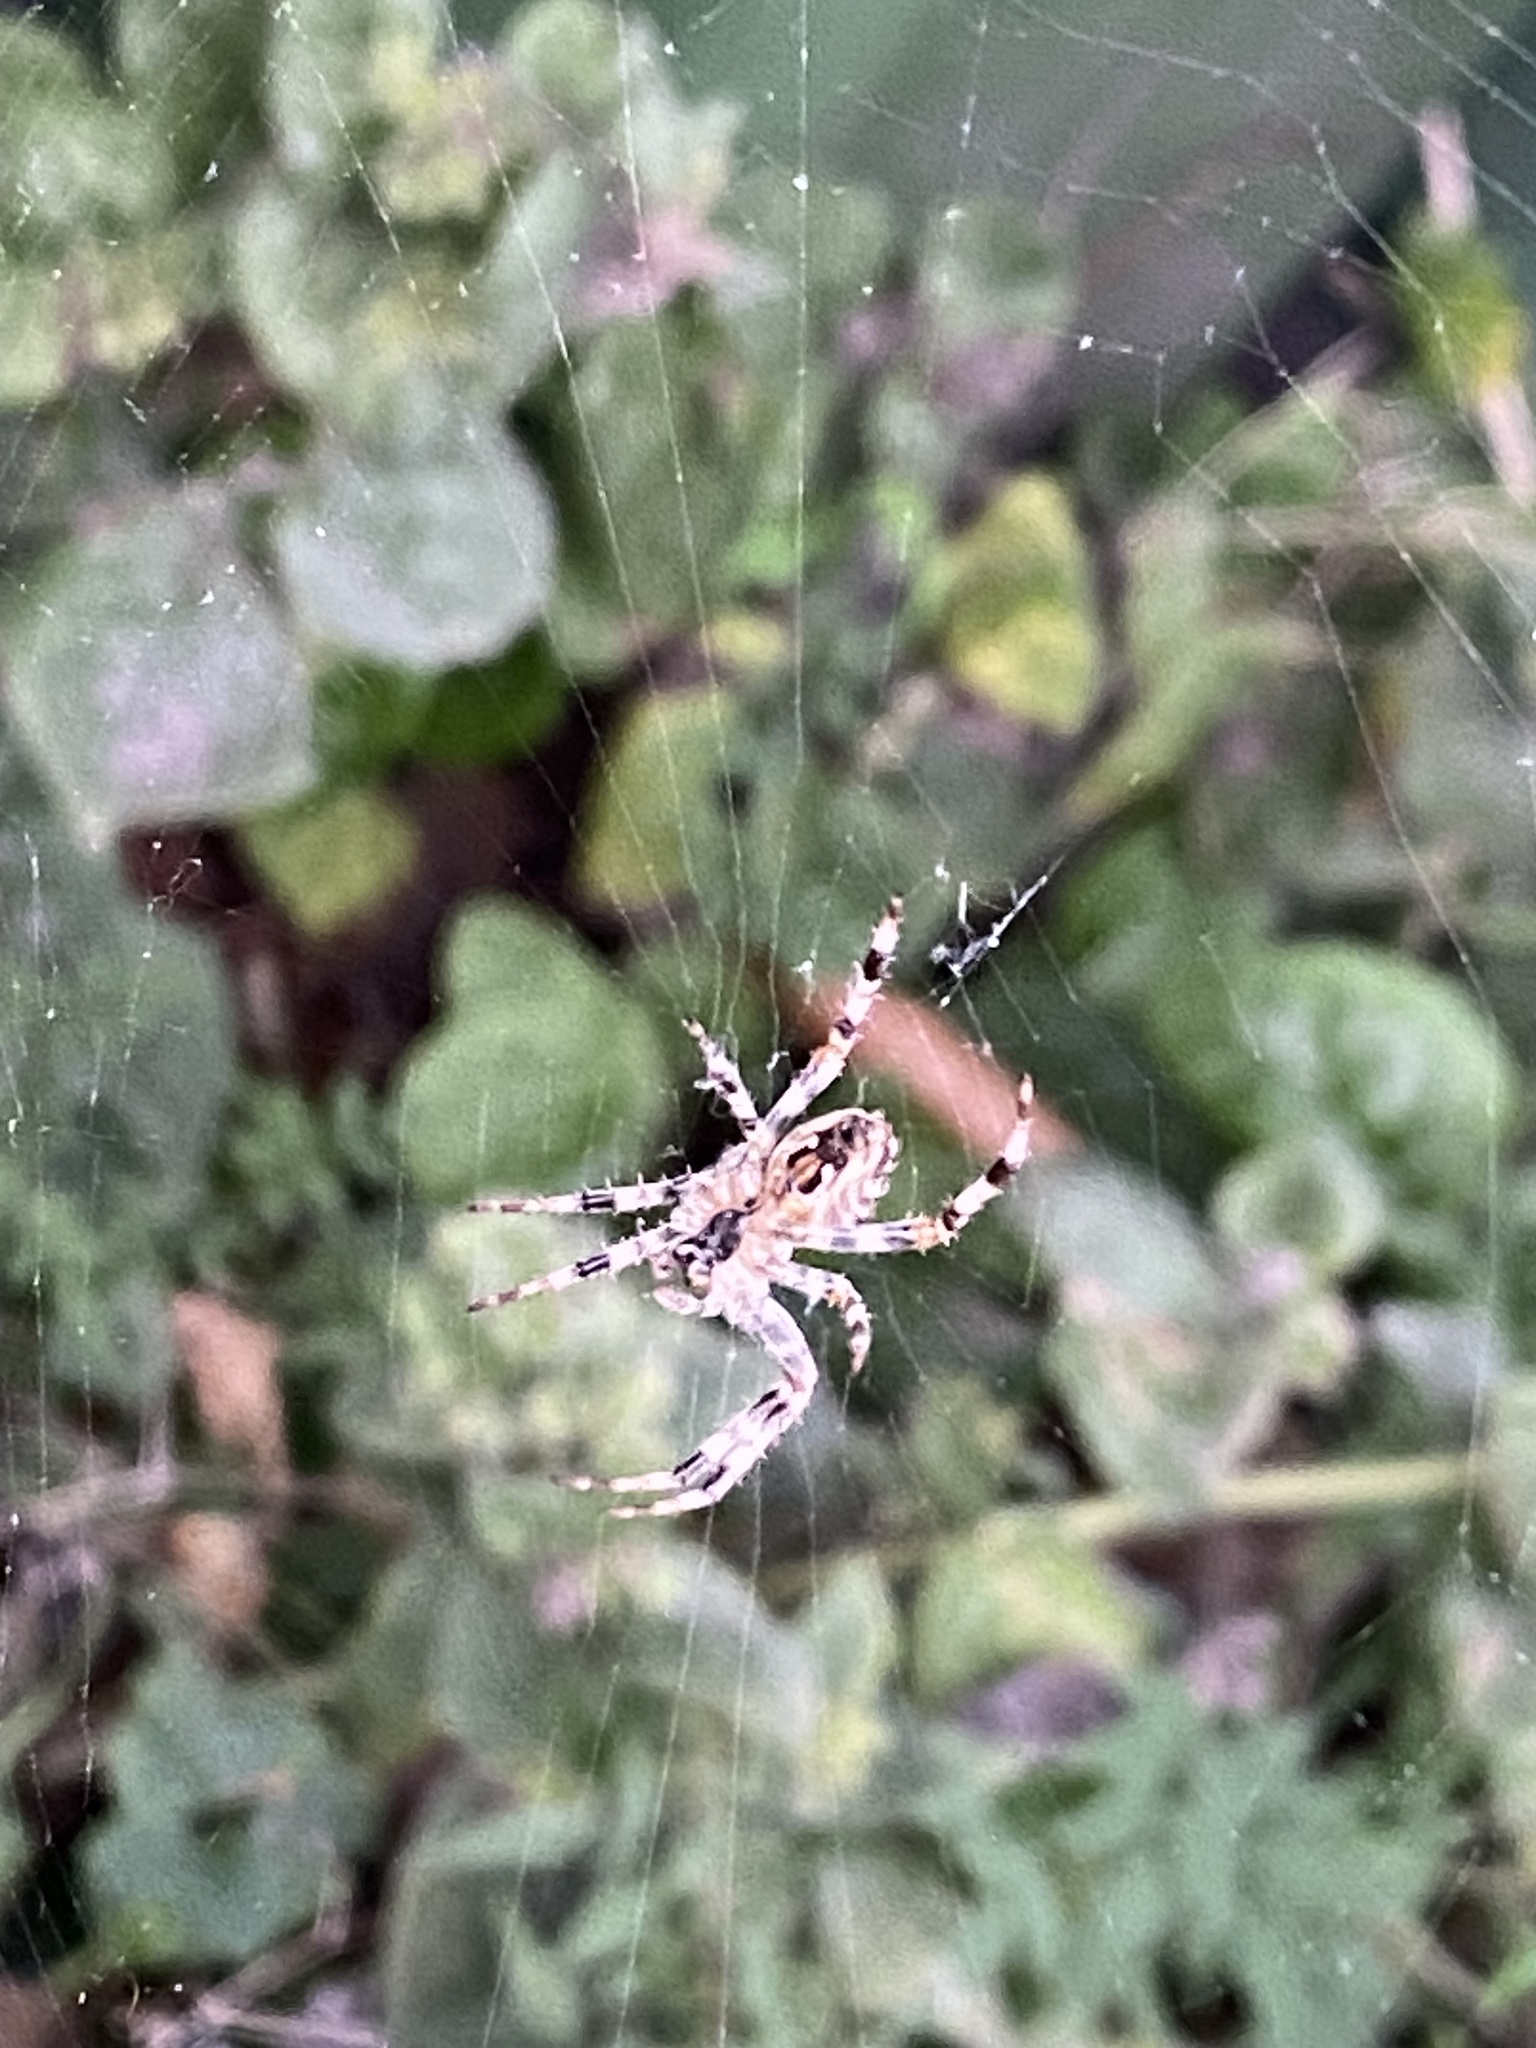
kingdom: Animalia
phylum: Arthropoda
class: Arachnida
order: Araneae
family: Araneidae
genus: Araneus
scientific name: Araneus diadematus
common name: Cross orbweaver
